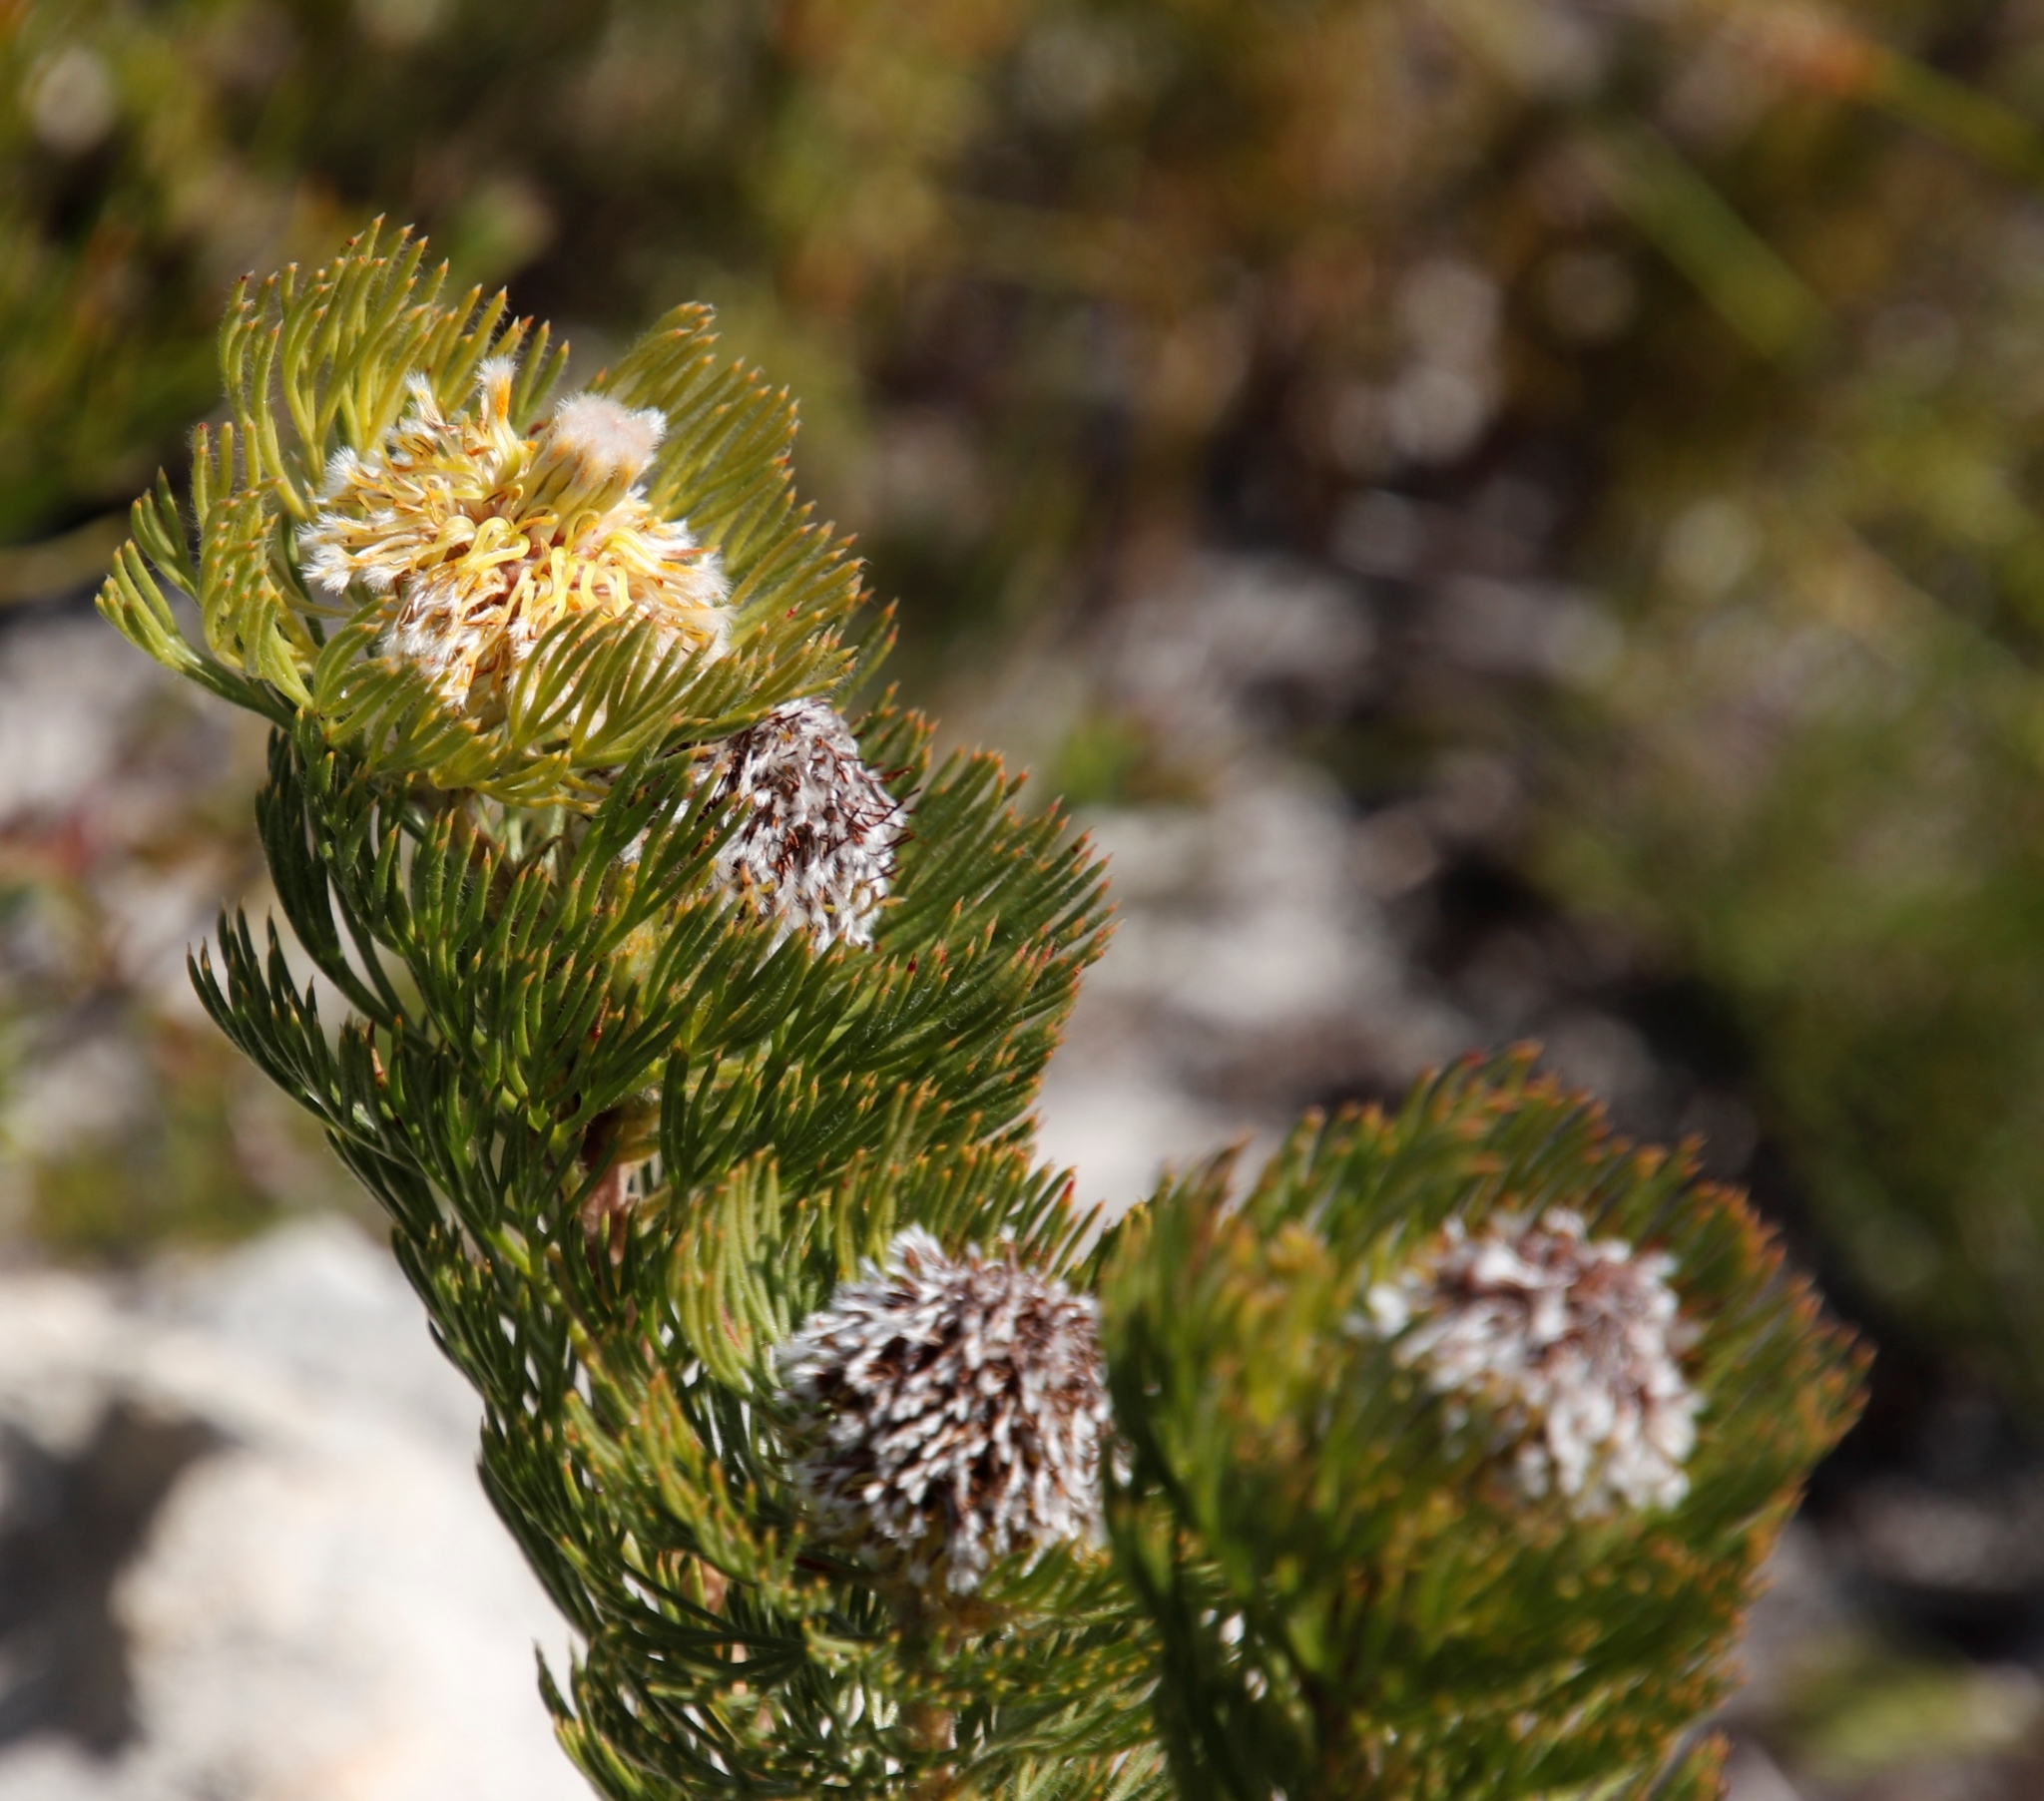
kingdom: Plantae
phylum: Tracheophyta
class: Magnoliopsida
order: Proteales
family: Proteaceae
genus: Serruria
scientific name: Serruria villosa
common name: Golden spiderhead
